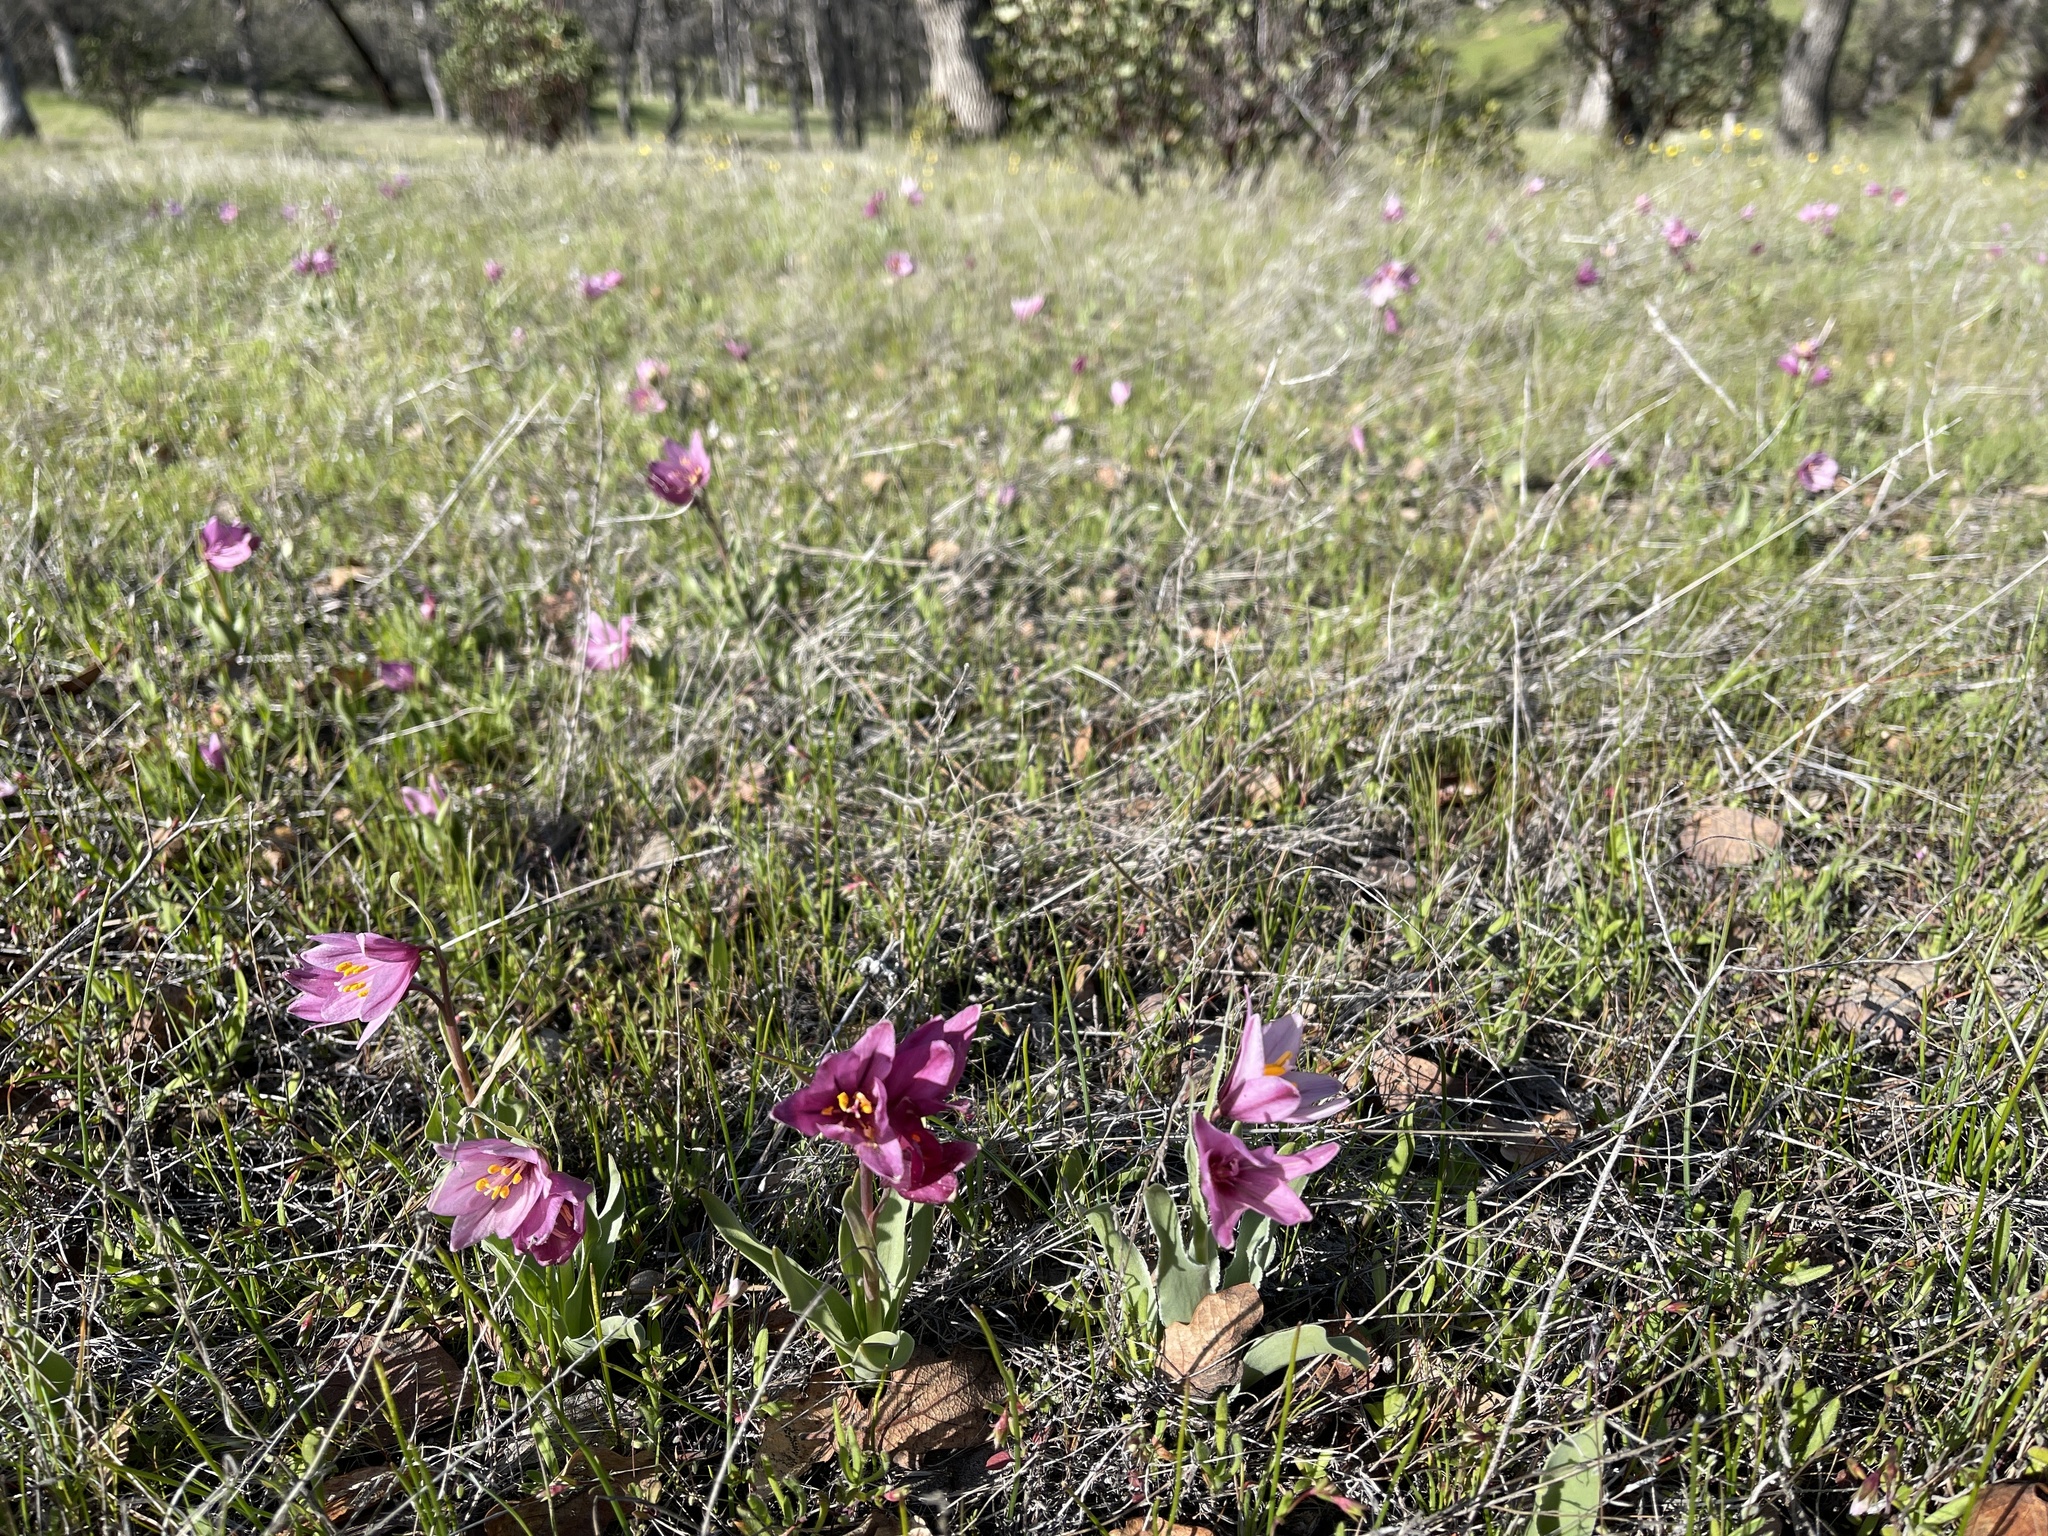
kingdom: Plantae
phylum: Tracheophyta
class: Liliopsida
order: Liliales
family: Liliaceae
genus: Fritillaria
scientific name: Fritillaria pluriflora
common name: Adobe-lily
